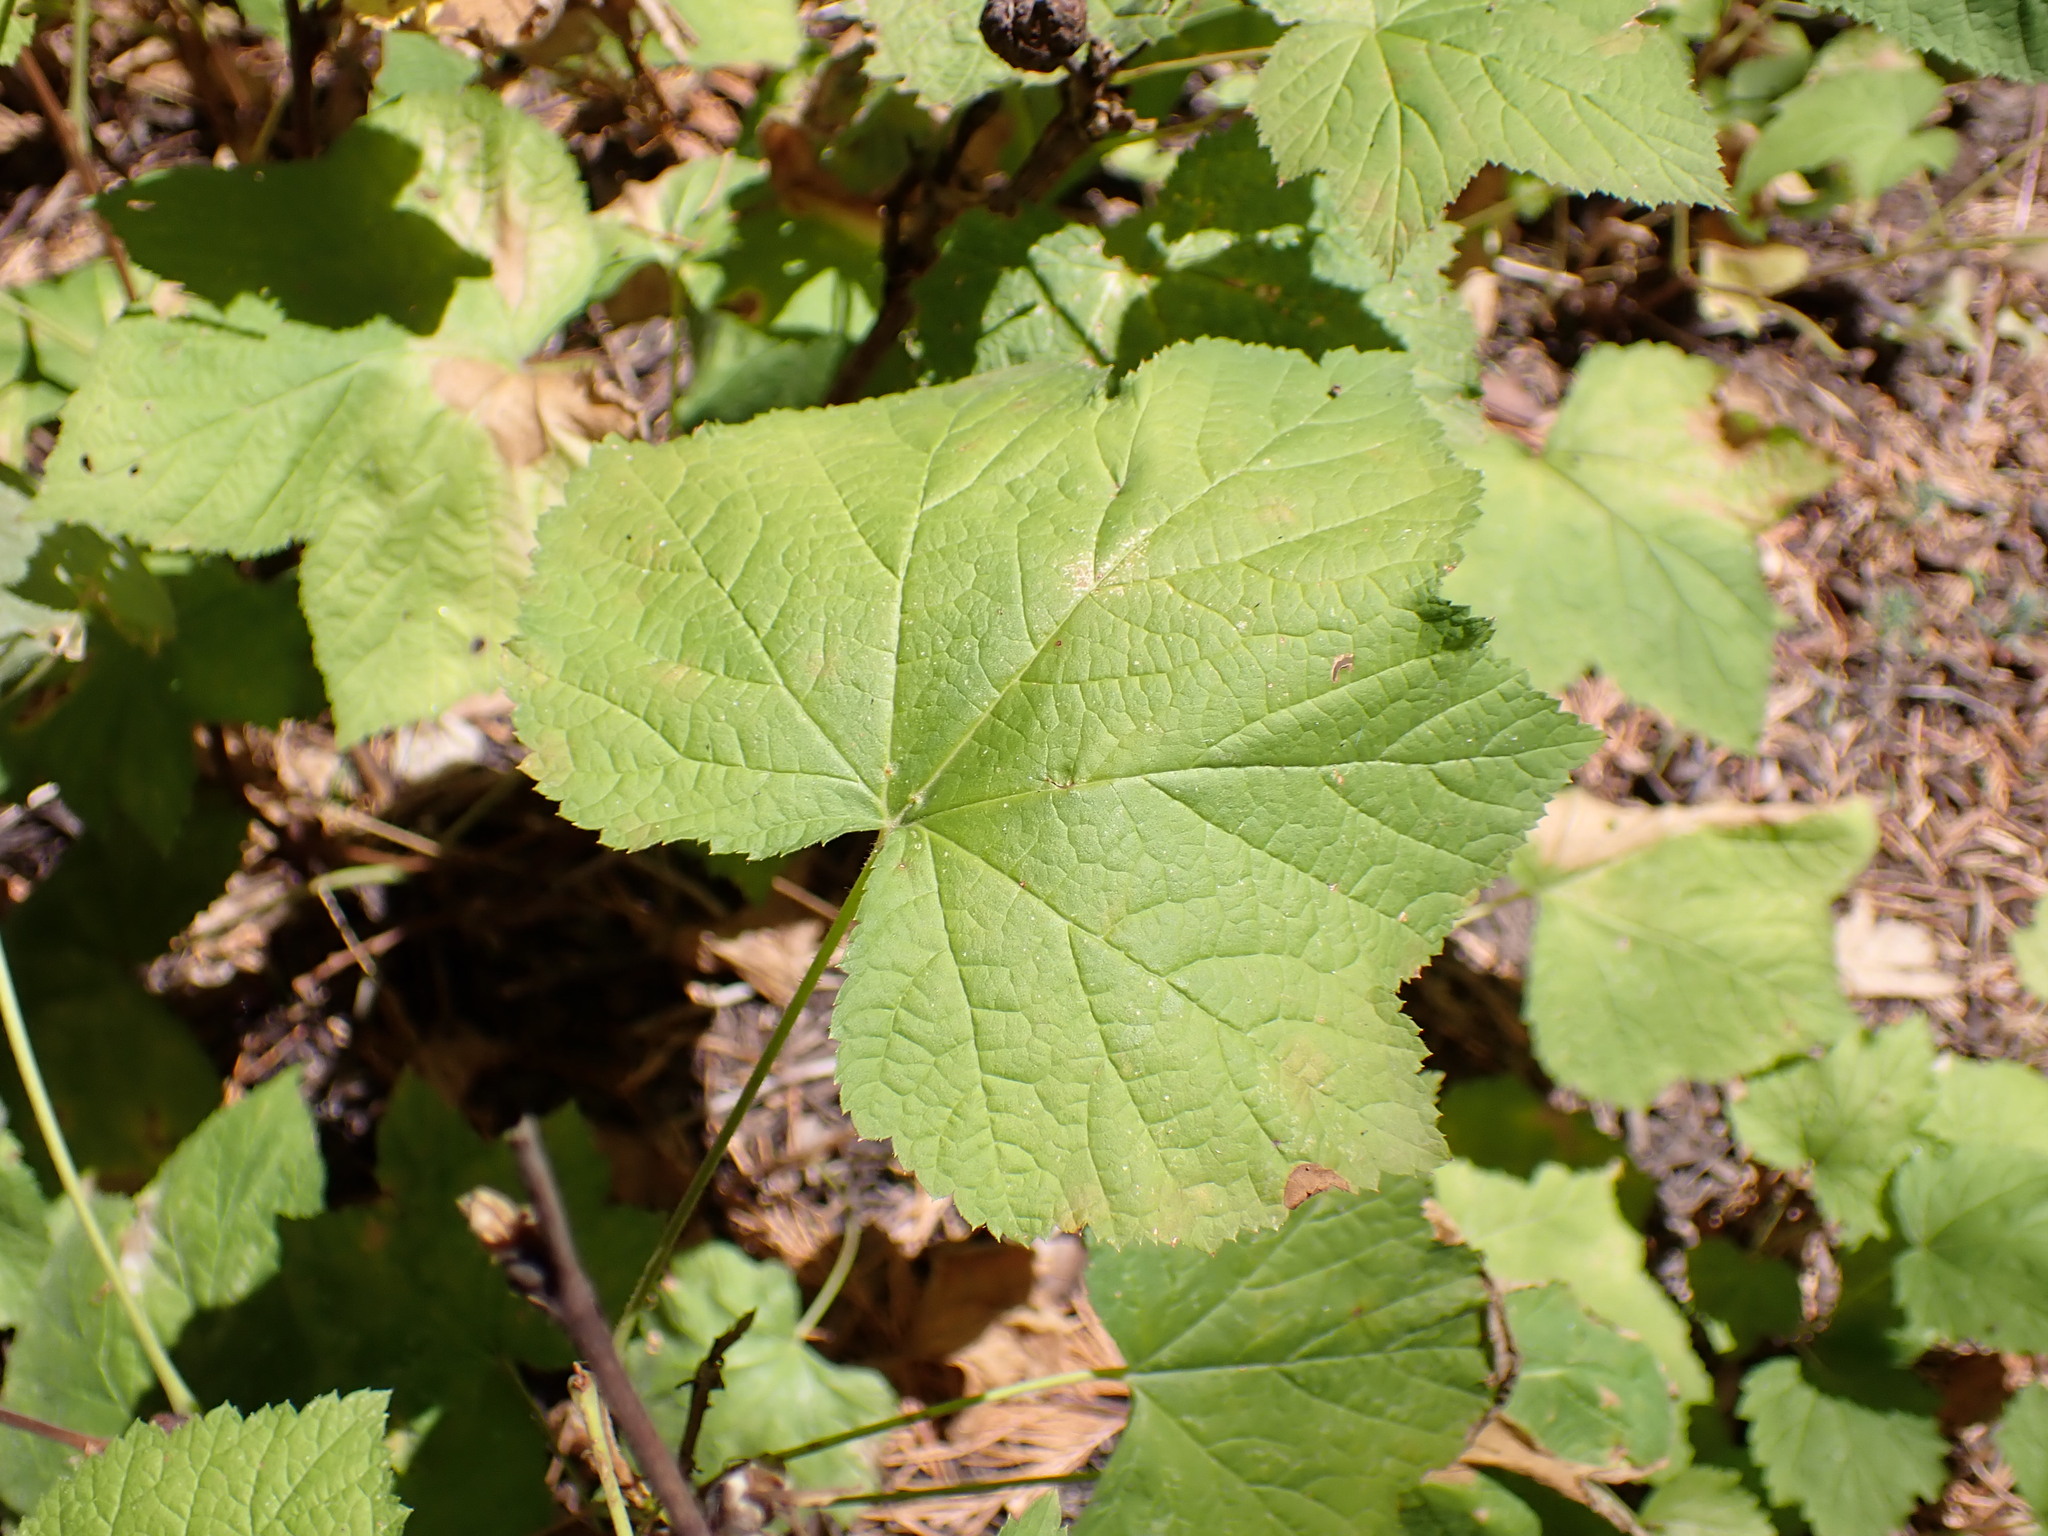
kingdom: Plantae
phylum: Tracheophyta
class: Magnoliopsida
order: Rosales
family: Rosaceae
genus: Rubus
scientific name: Rubus parviflorus
